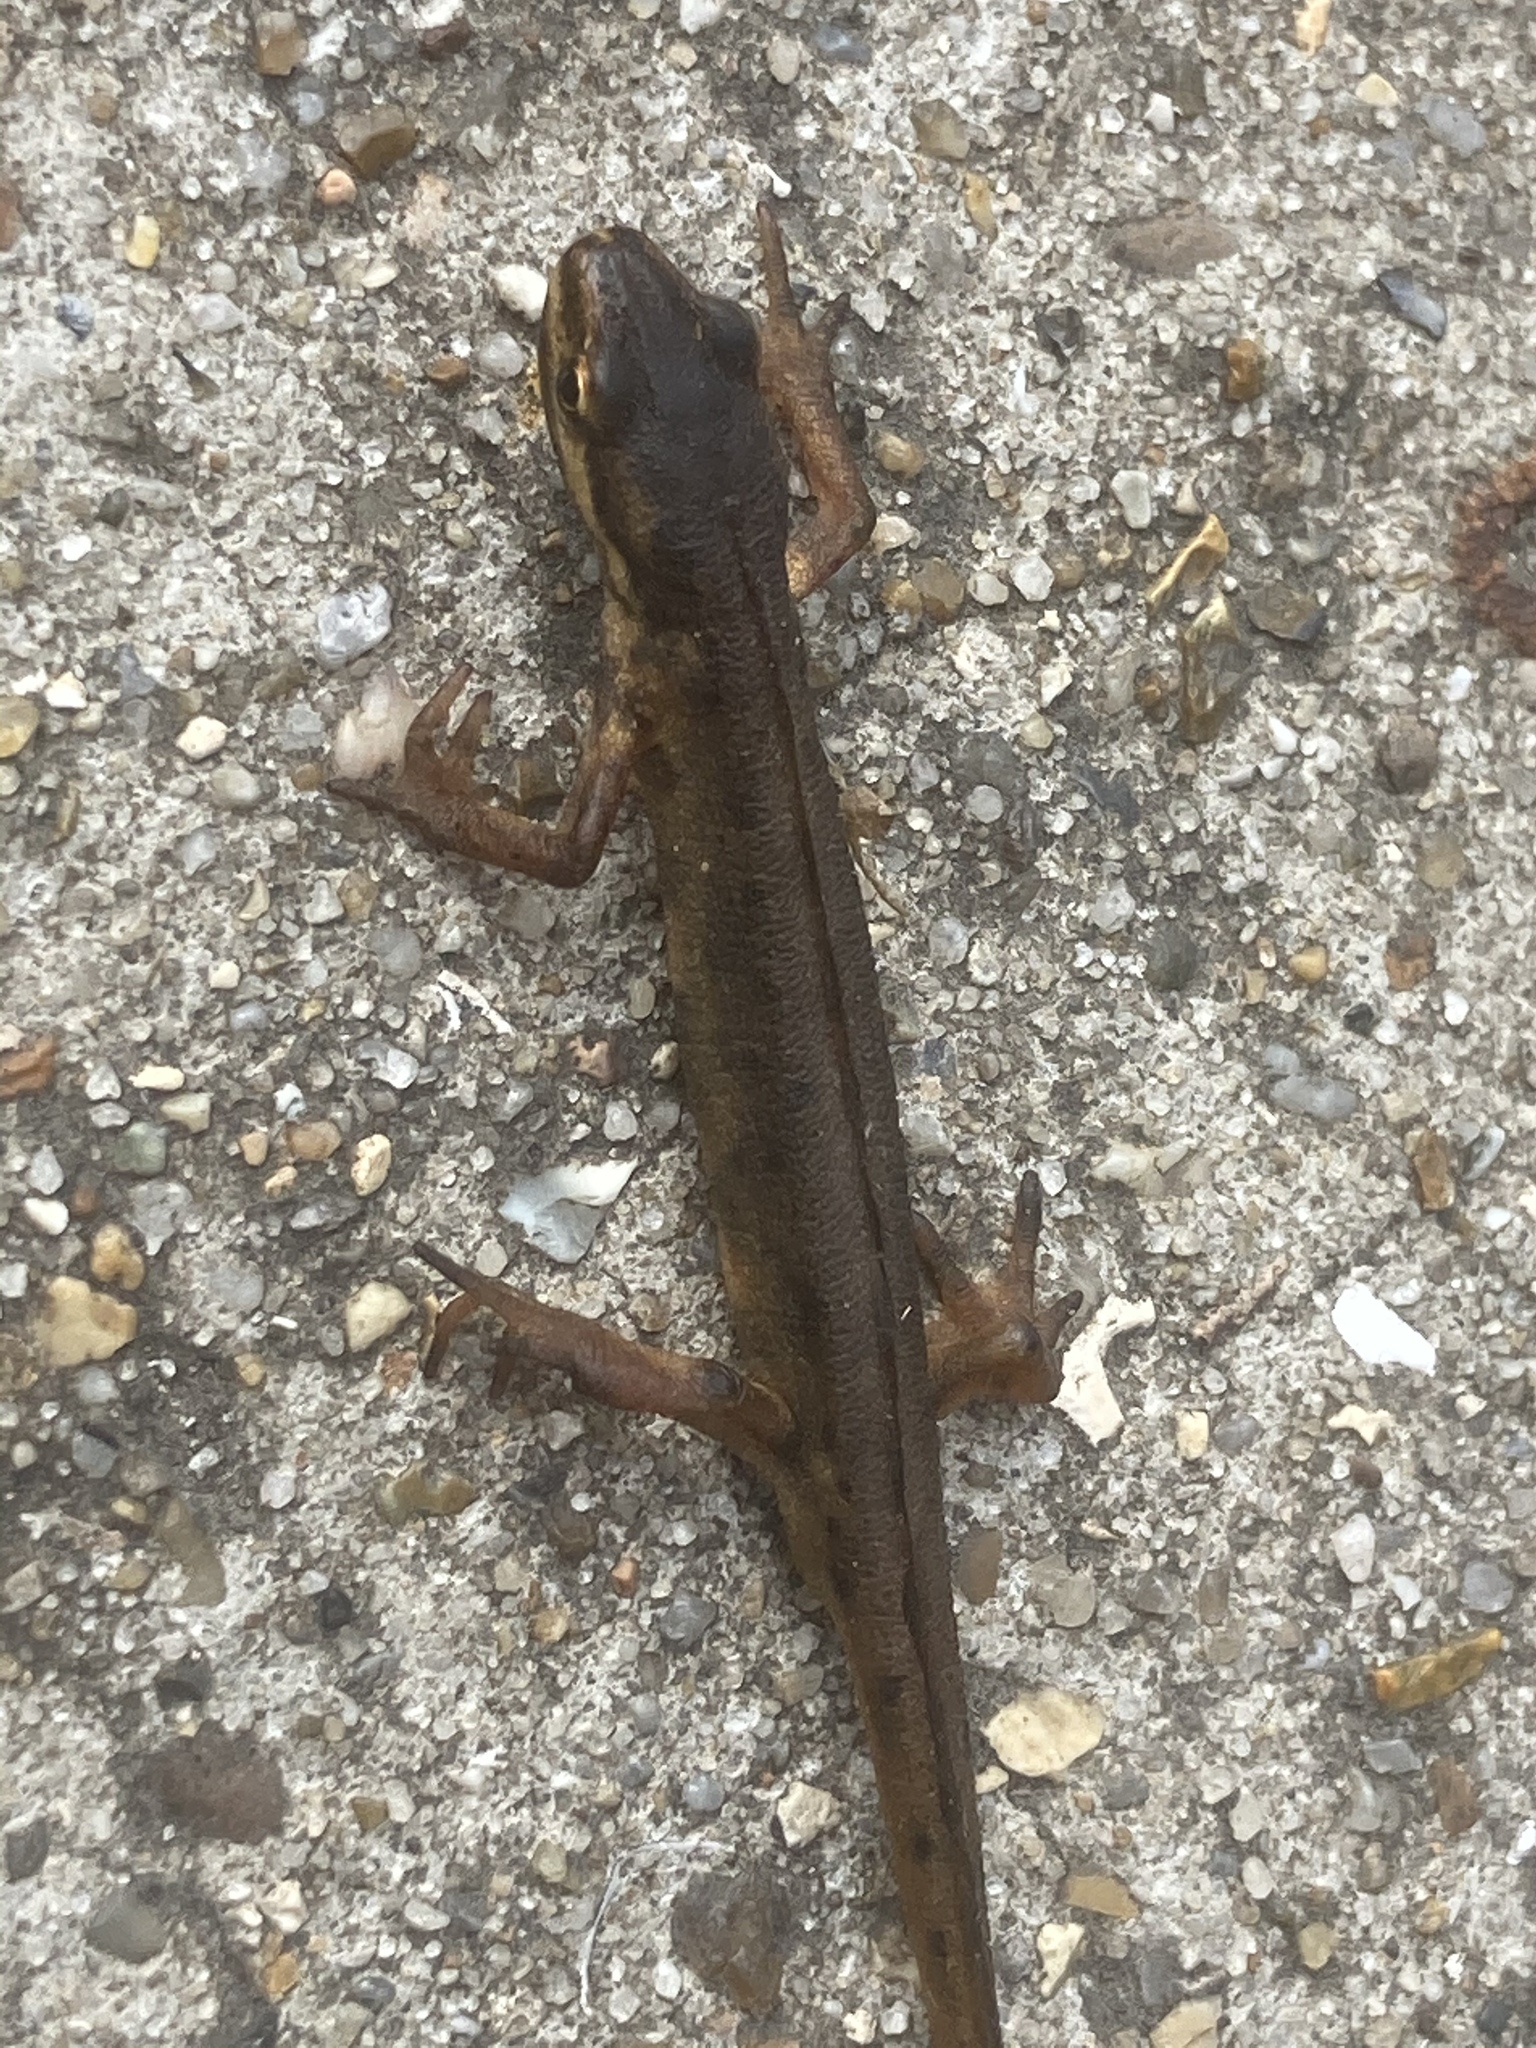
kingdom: Animalia
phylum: Chordata
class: Amphibia
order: Caudata
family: Salamandridae
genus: Lissotriton
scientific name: Lissotriton vulgaris
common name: Smooth newt
